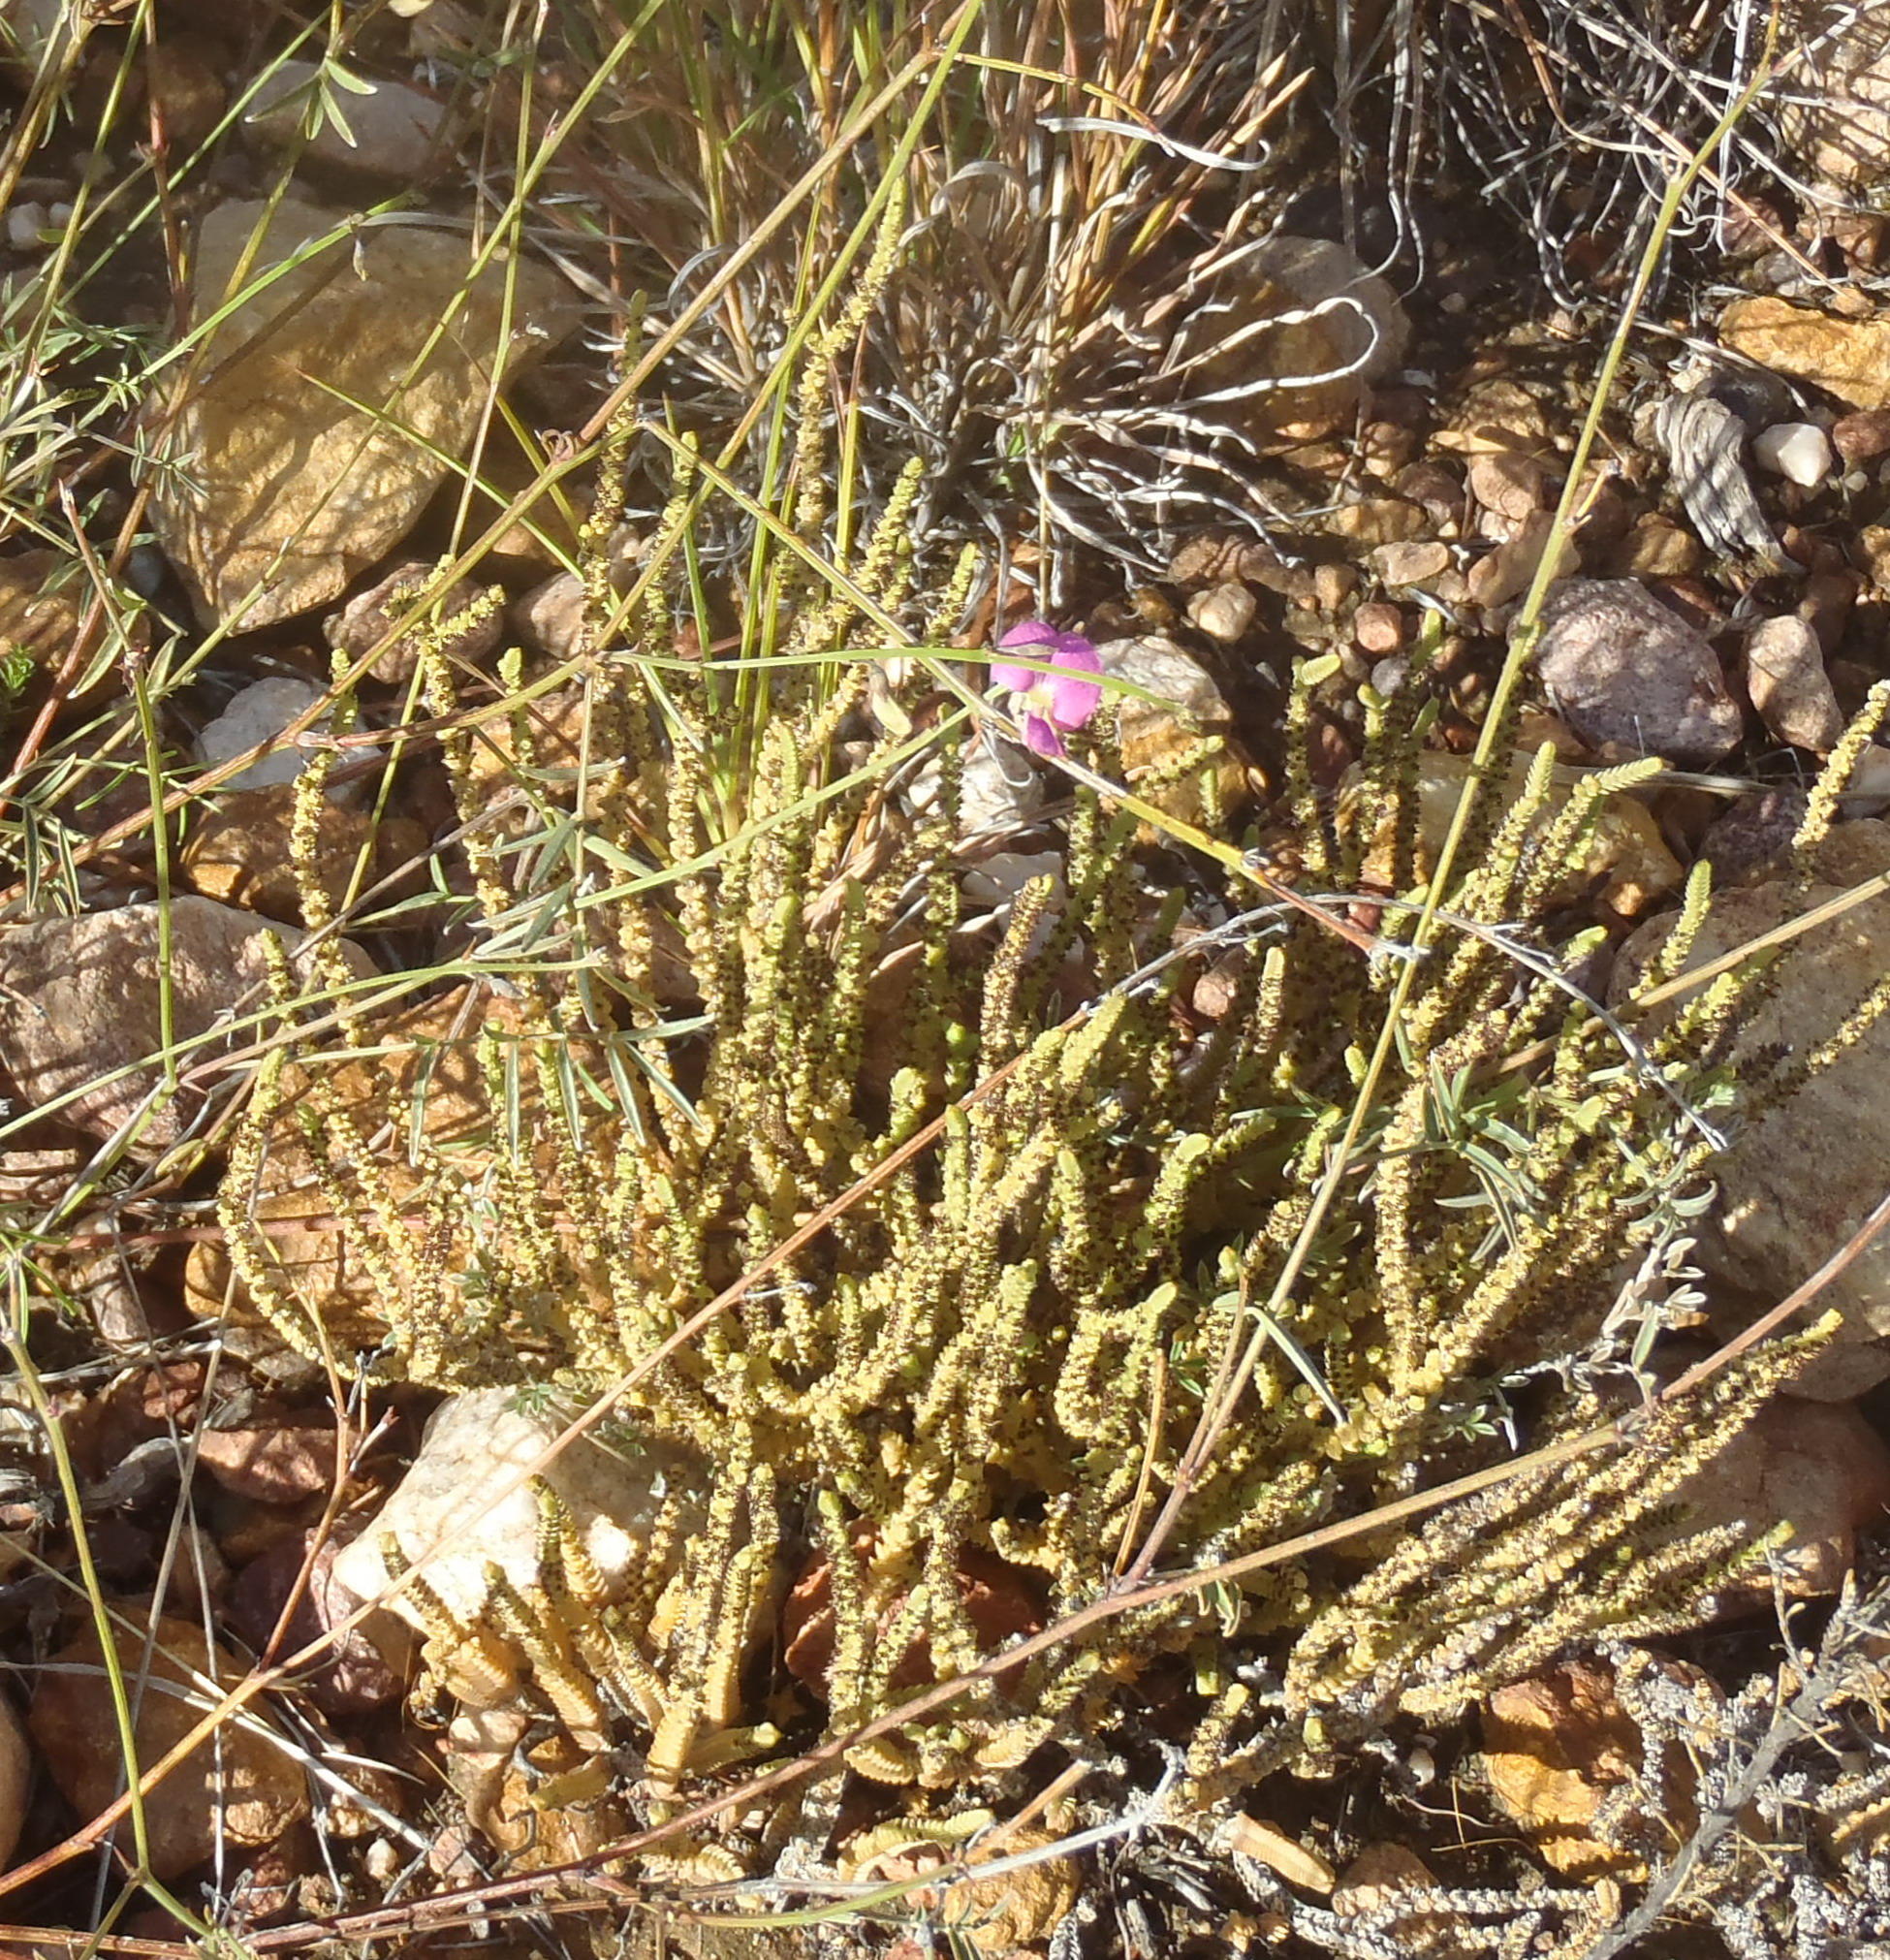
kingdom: Plantae
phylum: Tracheophyta
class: Magnoliopsida
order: Saxifragales
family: Crassulaceae
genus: Crassula
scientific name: Crassula muscosa
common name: Toy-cypress
